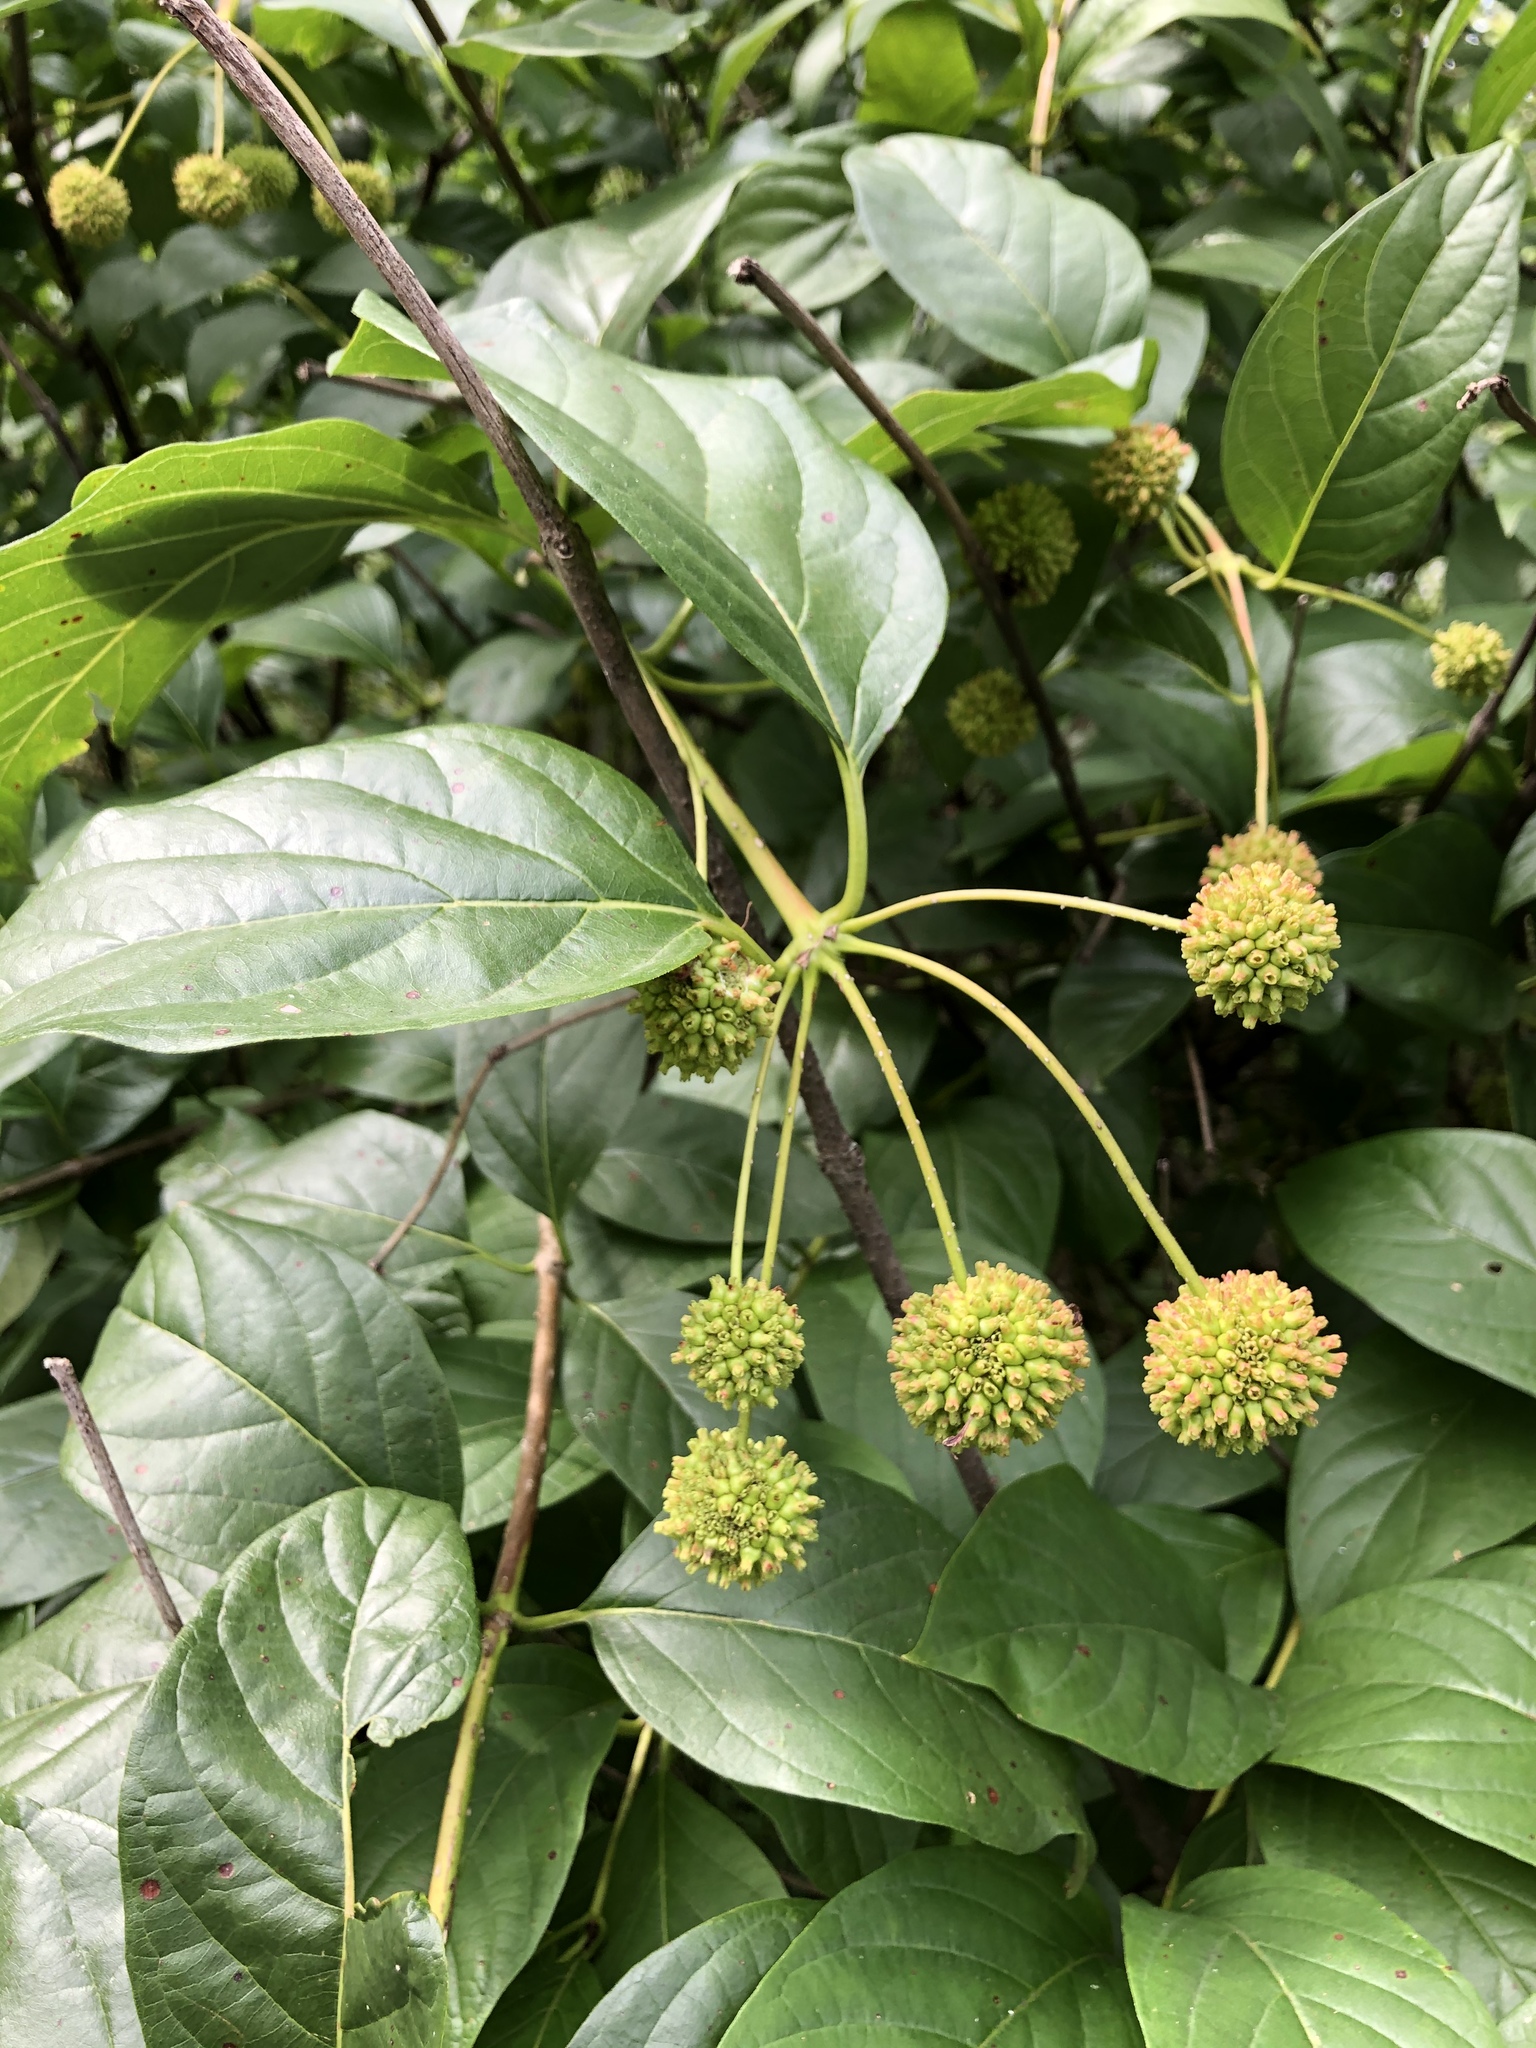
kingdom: Plantae
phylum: Tracheophyta
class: Magnoliopsida
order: Gentianales
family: Rubiaceae
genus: Cephalanthus
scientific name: Cephalanthus occidentalis
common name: Button-willow
